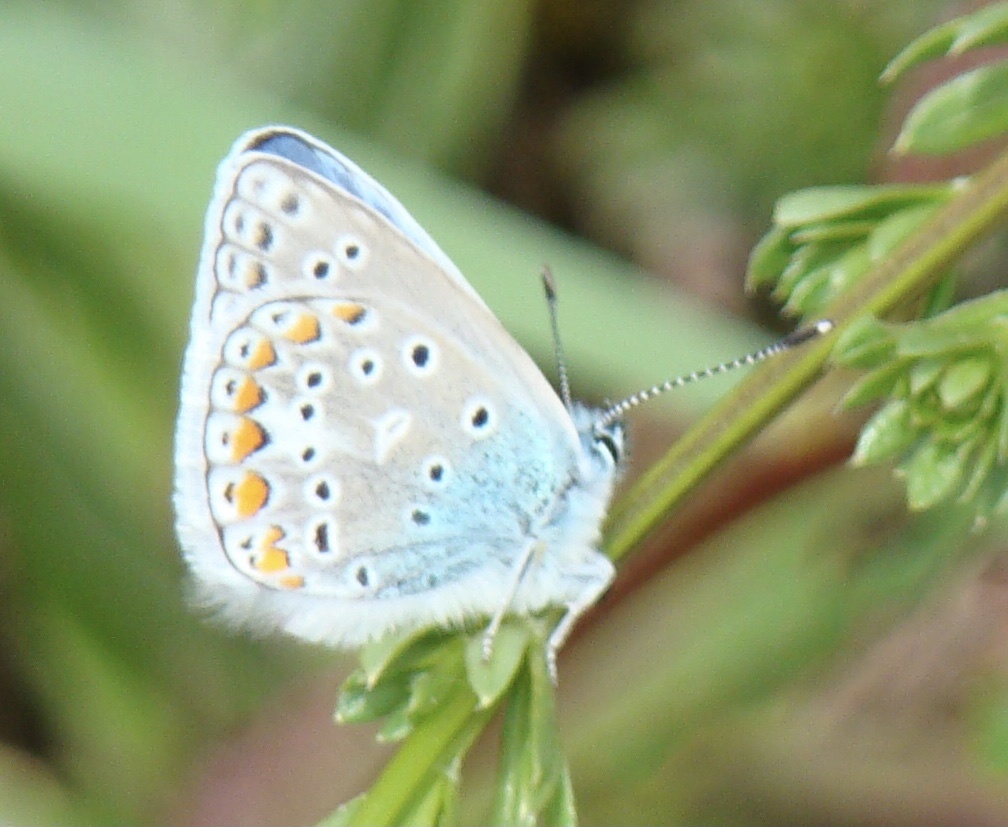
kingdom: Animalia
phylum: Arthropoda
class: Insecta
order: Lepidoptera
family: Lycaenidae
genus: Polyommatus
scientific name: Polyommatus icarus
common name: Common blue
